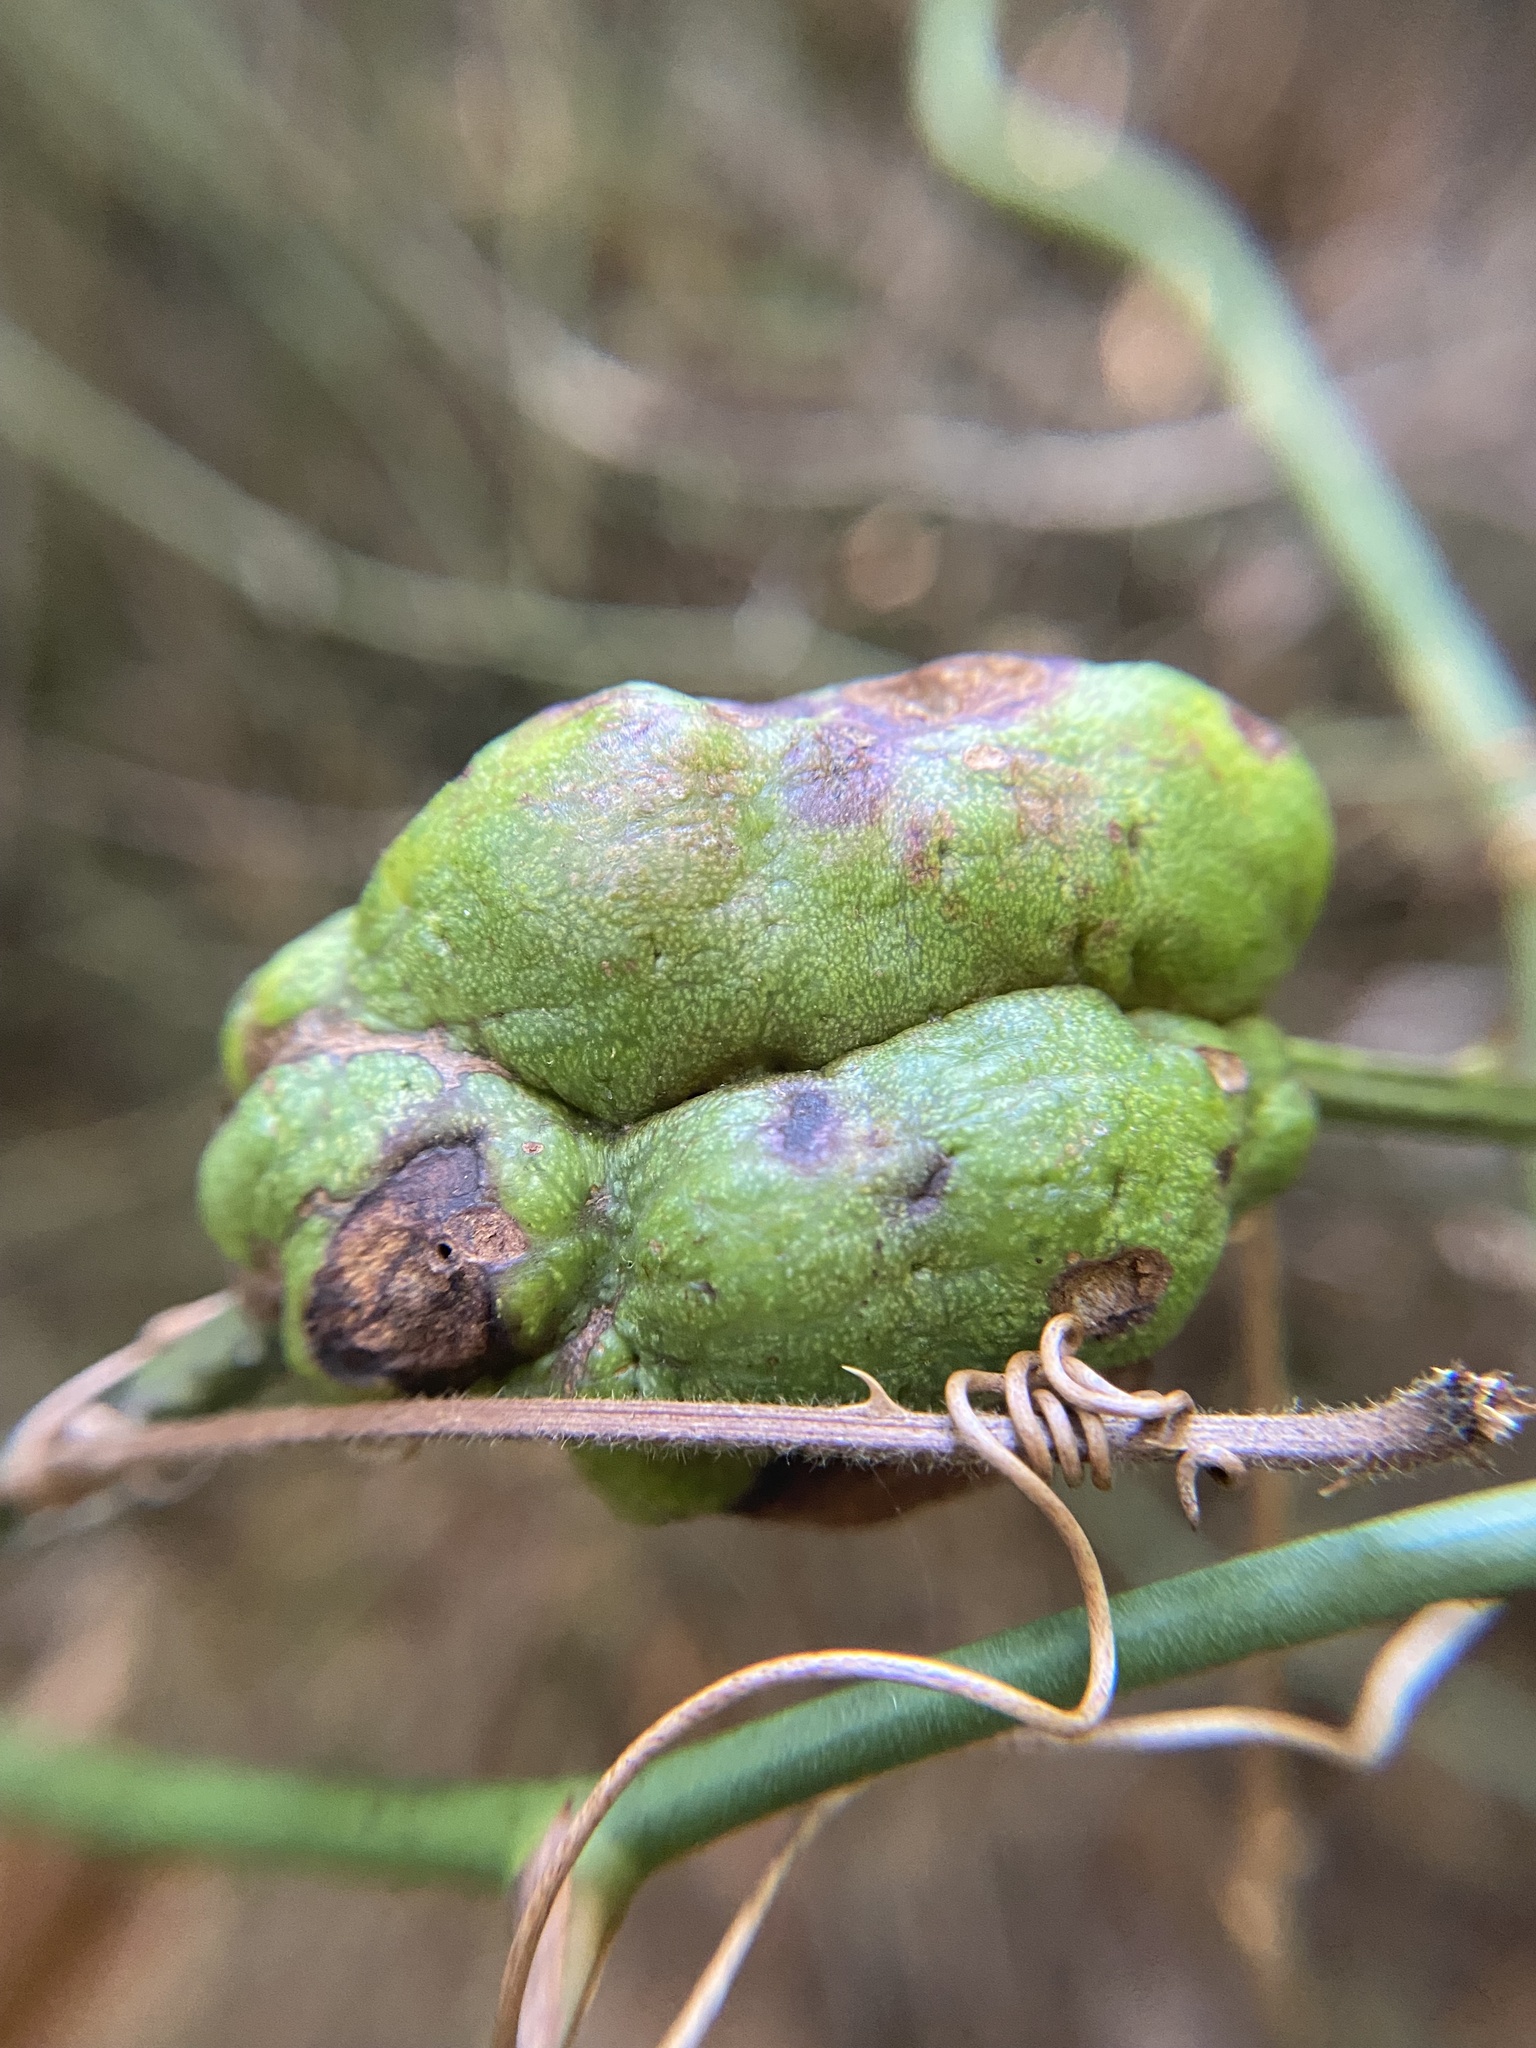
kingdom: Animalia
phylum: Arthropoda
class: Insecta
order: Hymenoptera
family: Cynipidae
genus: Diastrophus
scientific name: Diastrophus
